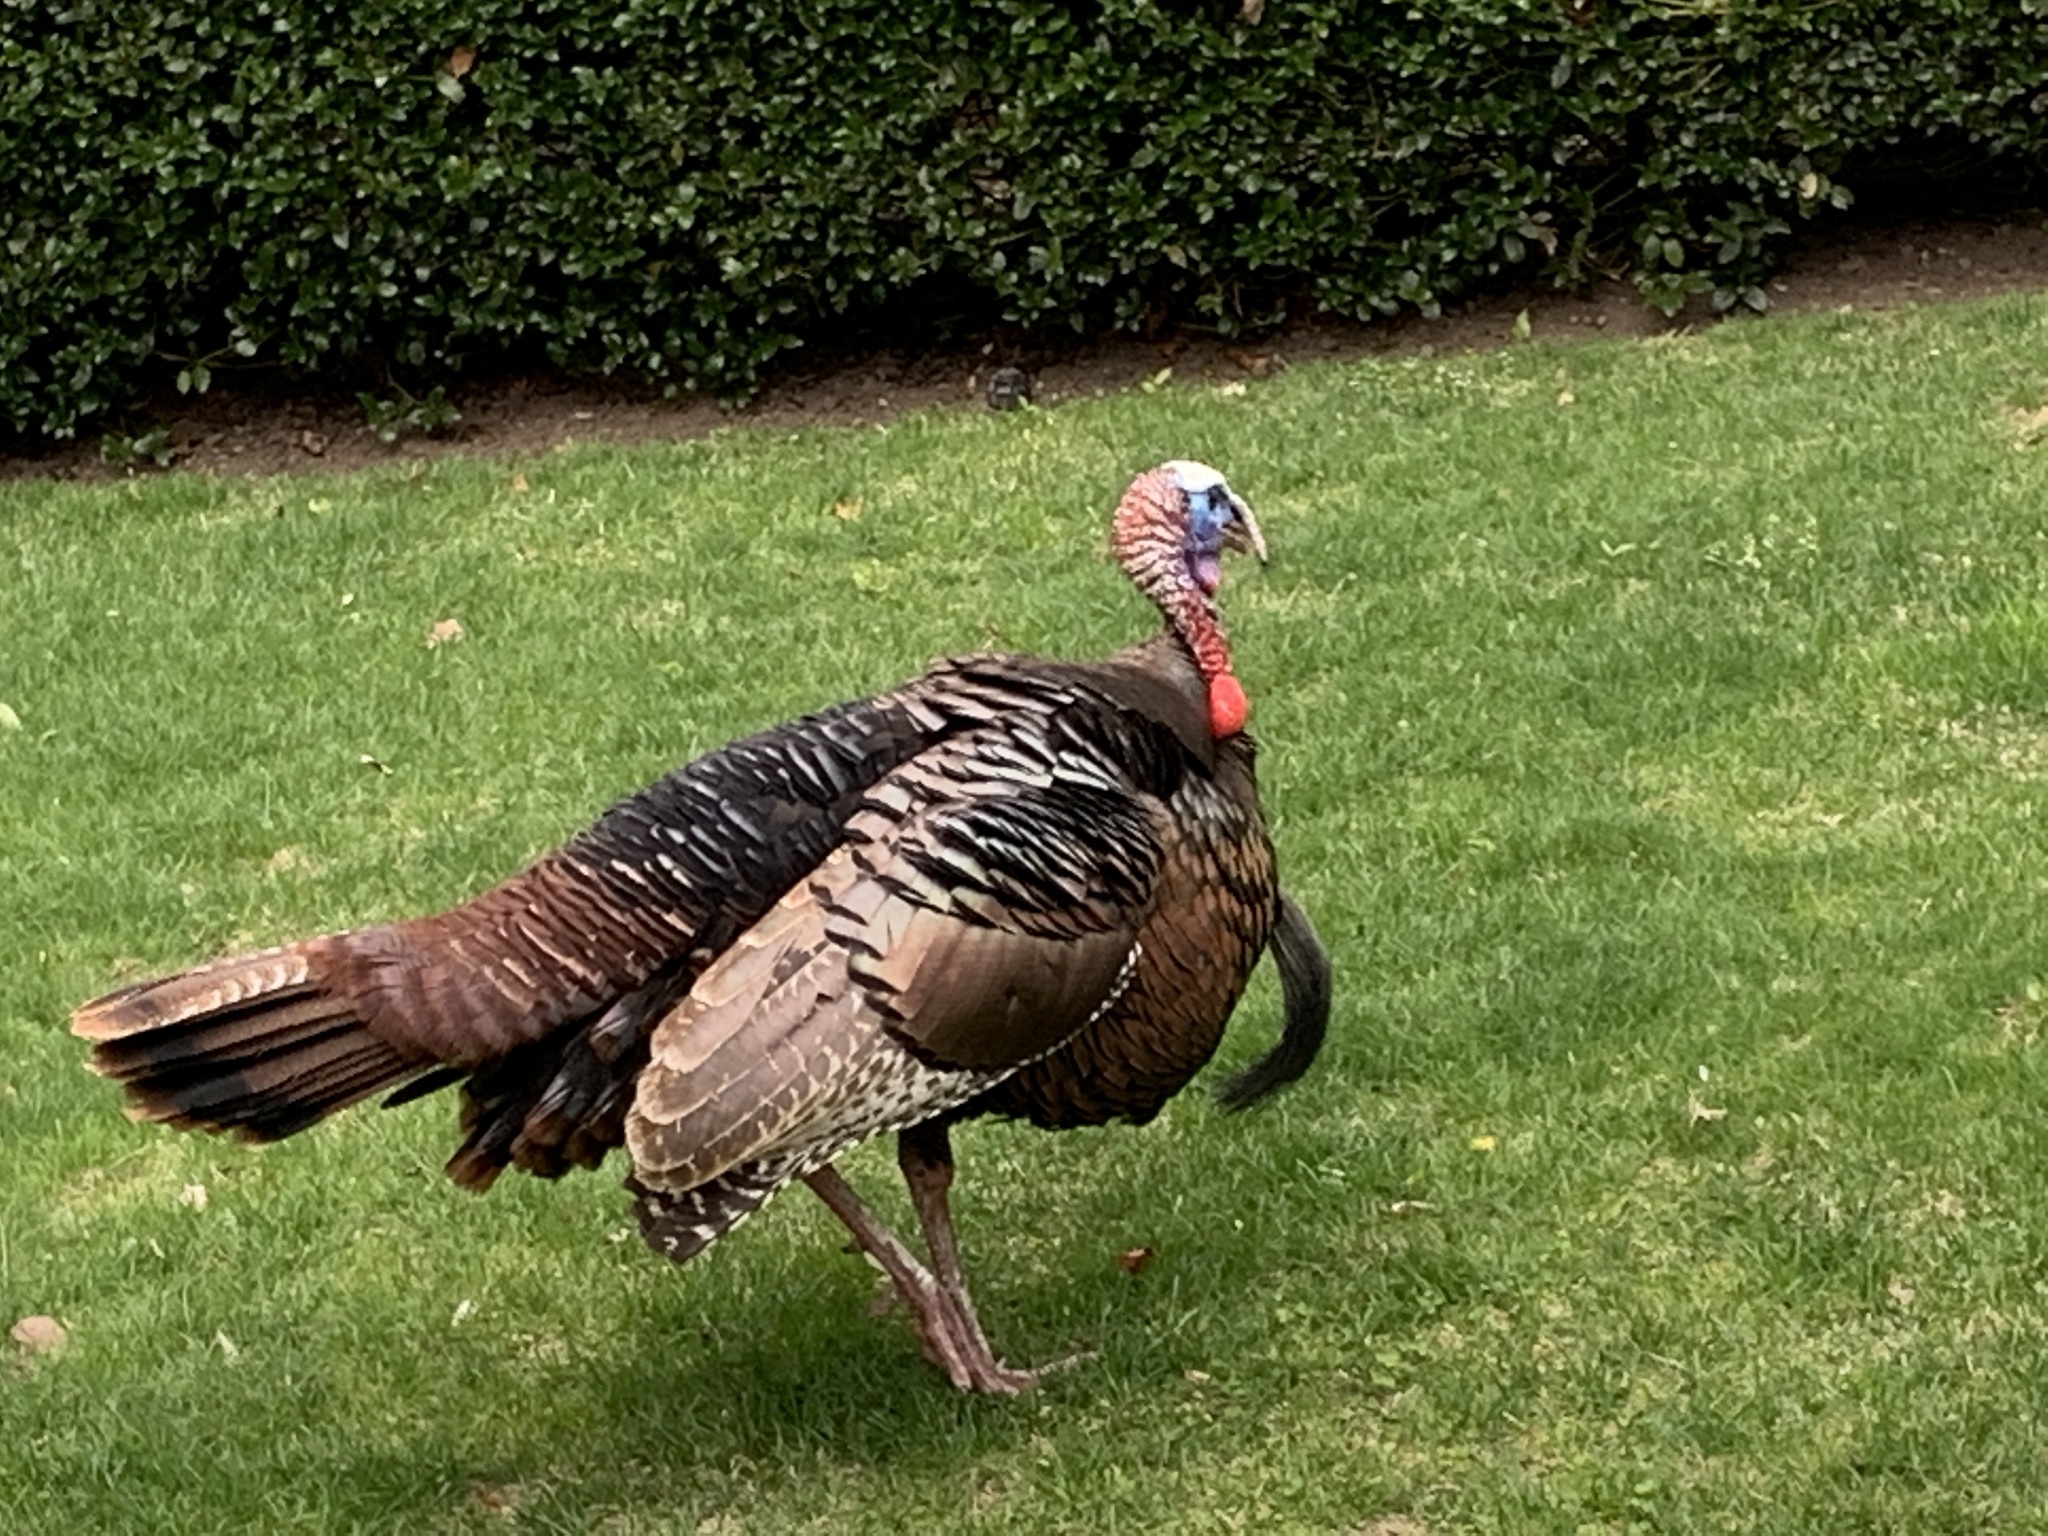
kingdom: Animalia
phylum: Chordata
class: Aves
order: Galliformes
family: Phasianidae
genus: Meleagris
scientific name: Meleagris gallopavo
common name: Wild turkey
